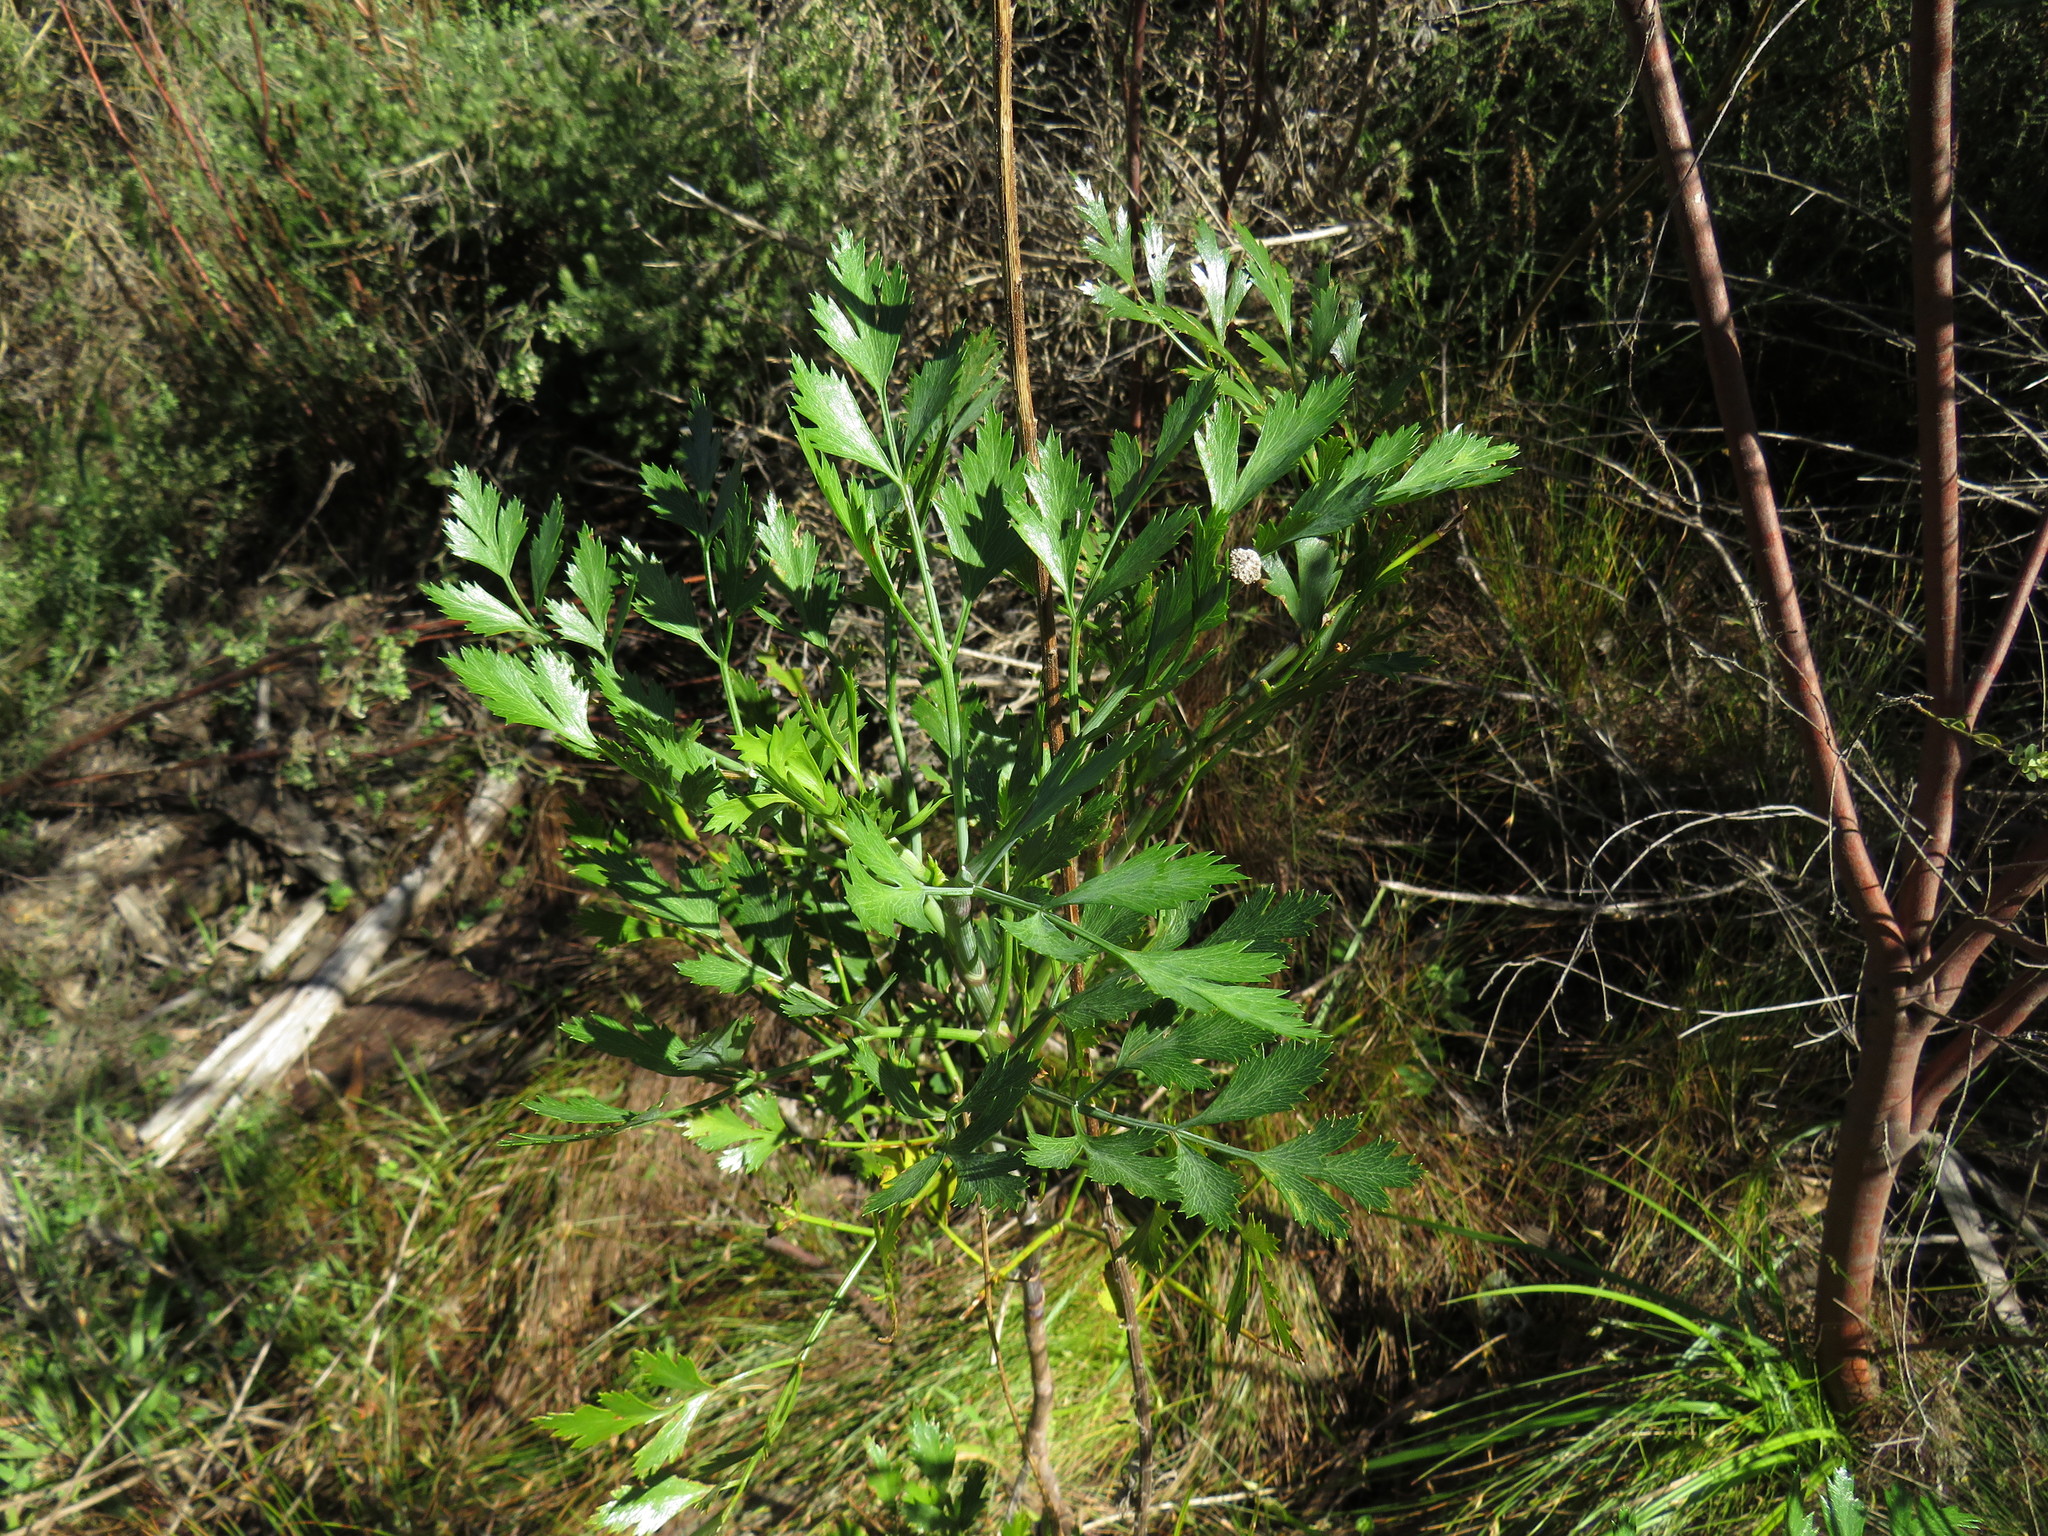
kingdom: Plantae
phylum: Tracheophyta
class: Magnoliopsida
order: Apiales
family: Apiaceae
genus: Notobubon
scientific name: Notobubon galbanum
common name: Blisterbush
